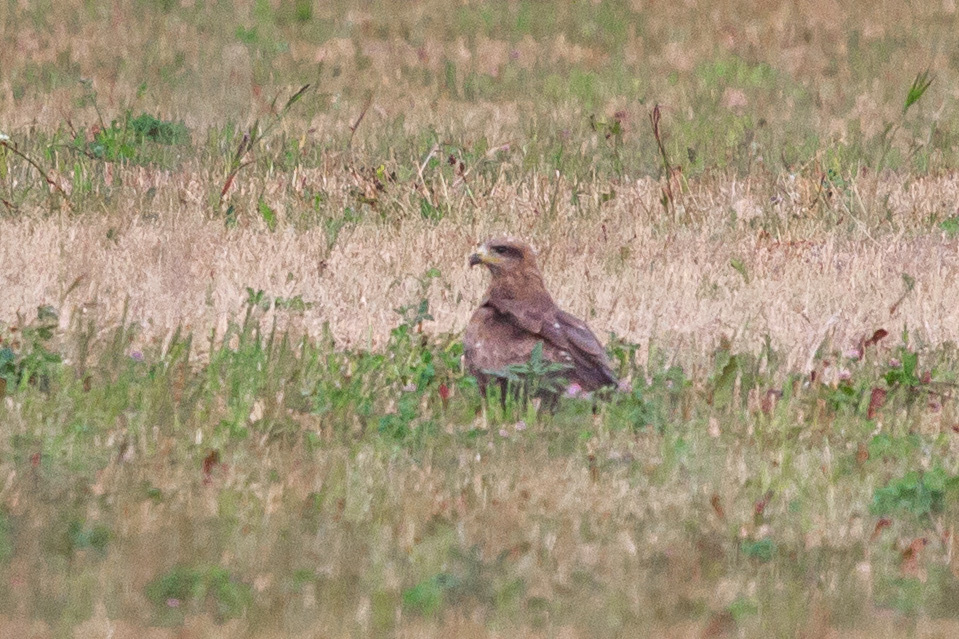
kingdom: Animalia
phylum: Chordata
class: Aves
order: Accipitriformes
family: Accipitridae
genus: Milvus
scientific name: Milvus migrans
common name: Black kite
